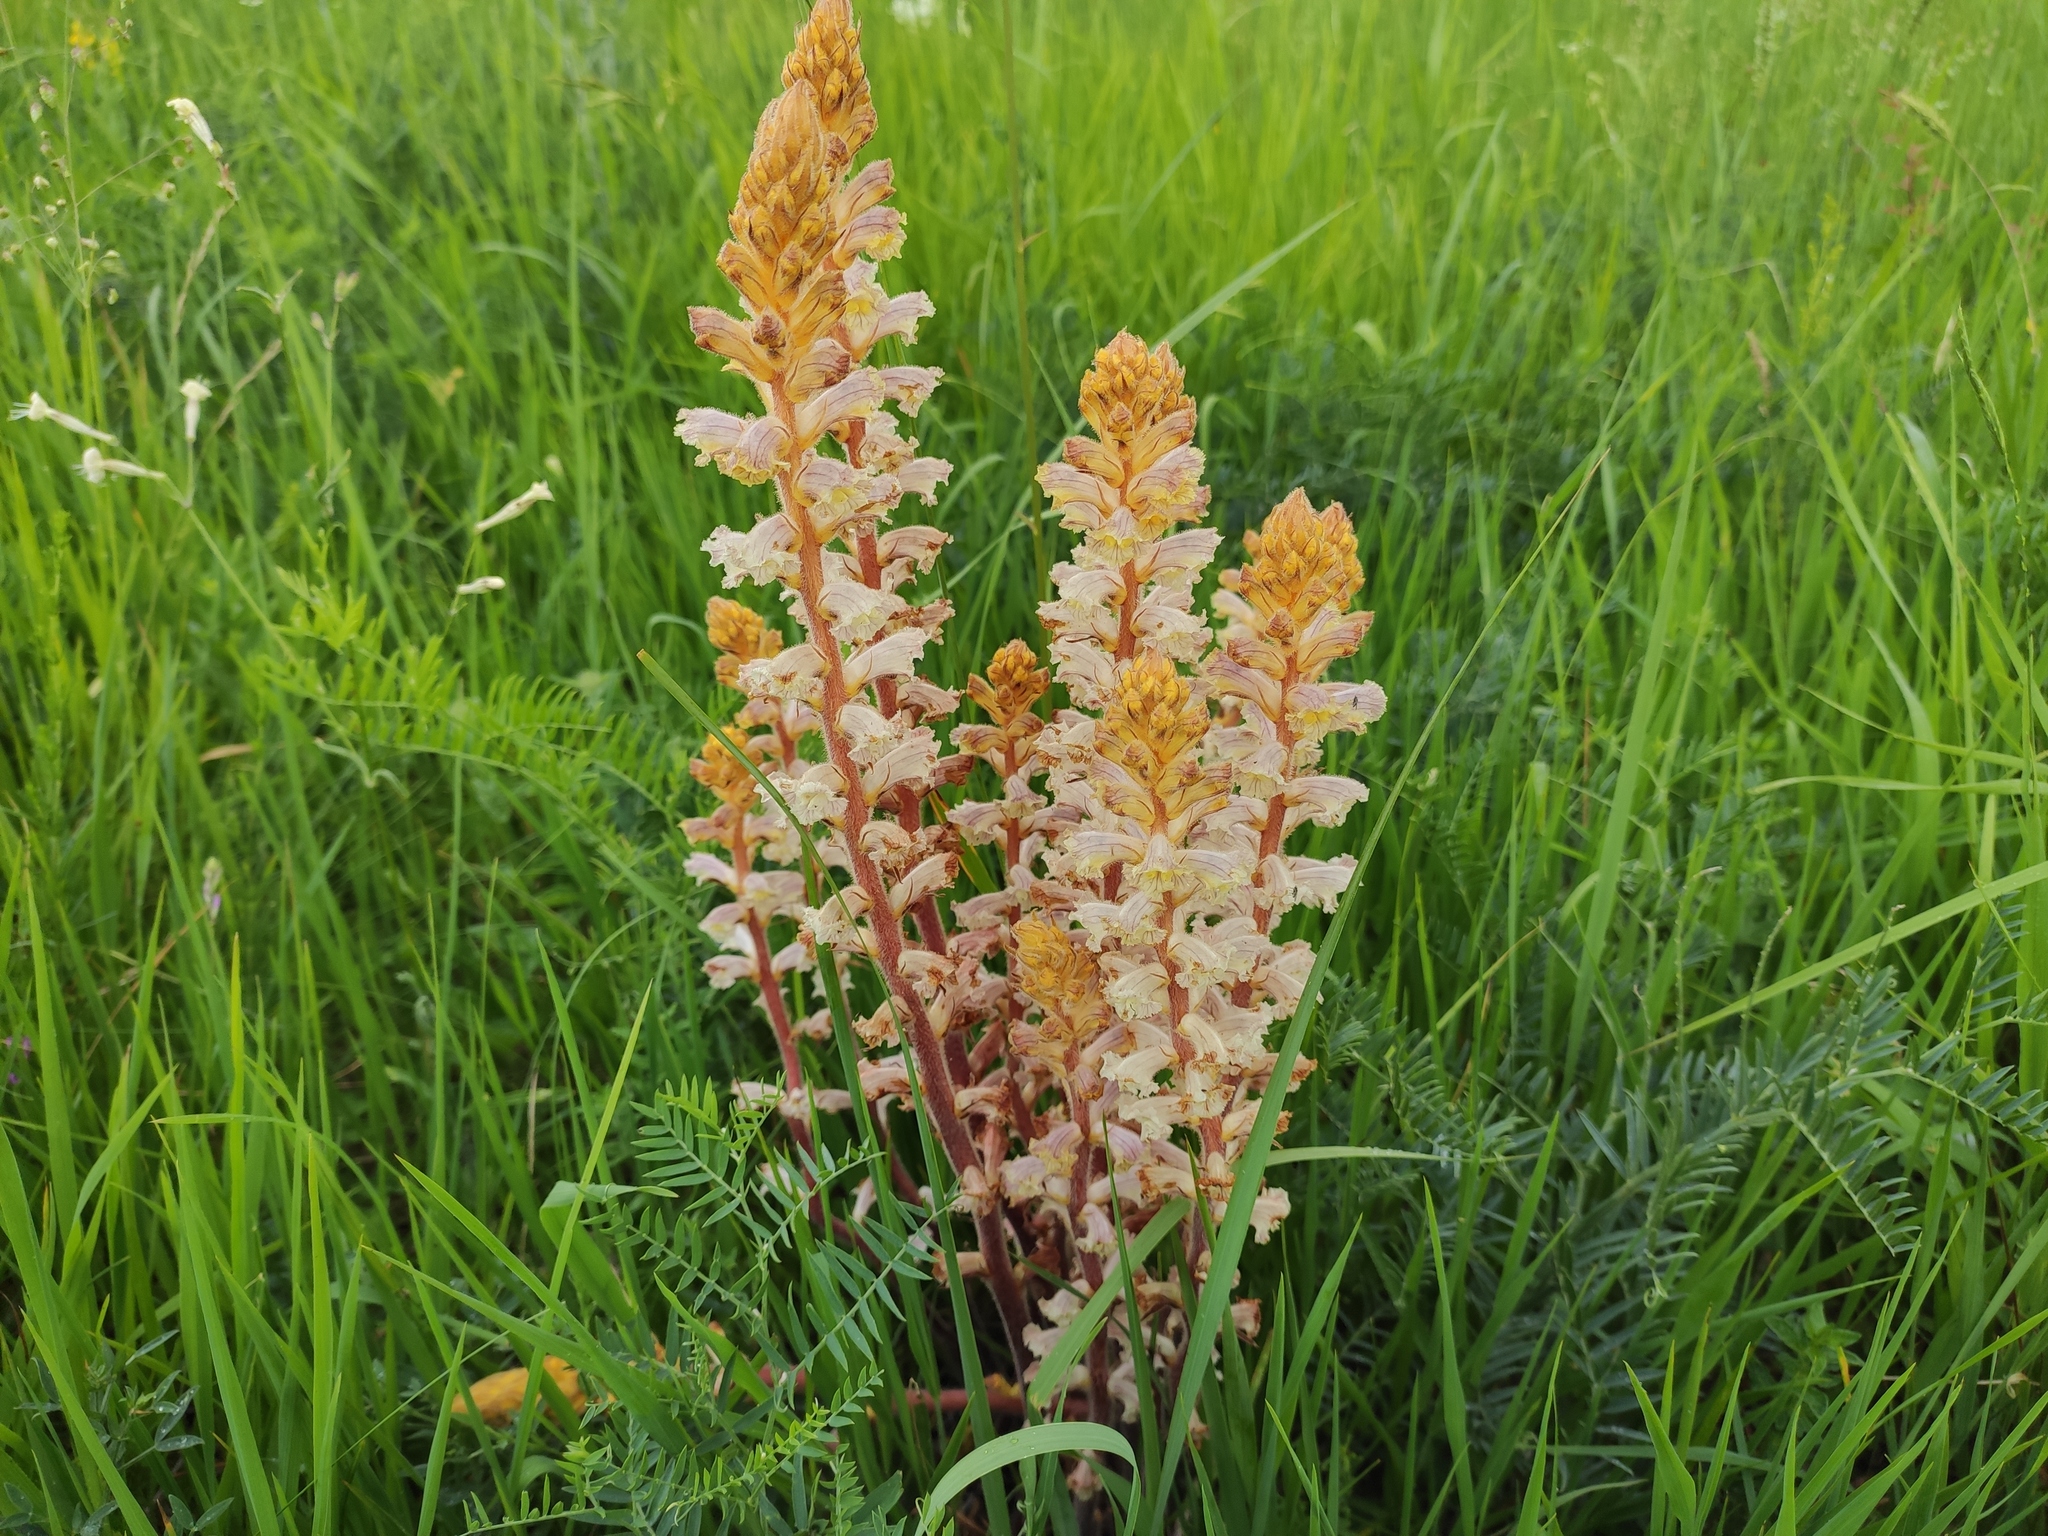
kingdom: Plantae
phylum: Tracheophyta
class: Magnoliopsida
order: Lamiales
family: Orobanchaceae
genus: Orobanche
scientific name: Orobanche minor
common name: Common broomrape
